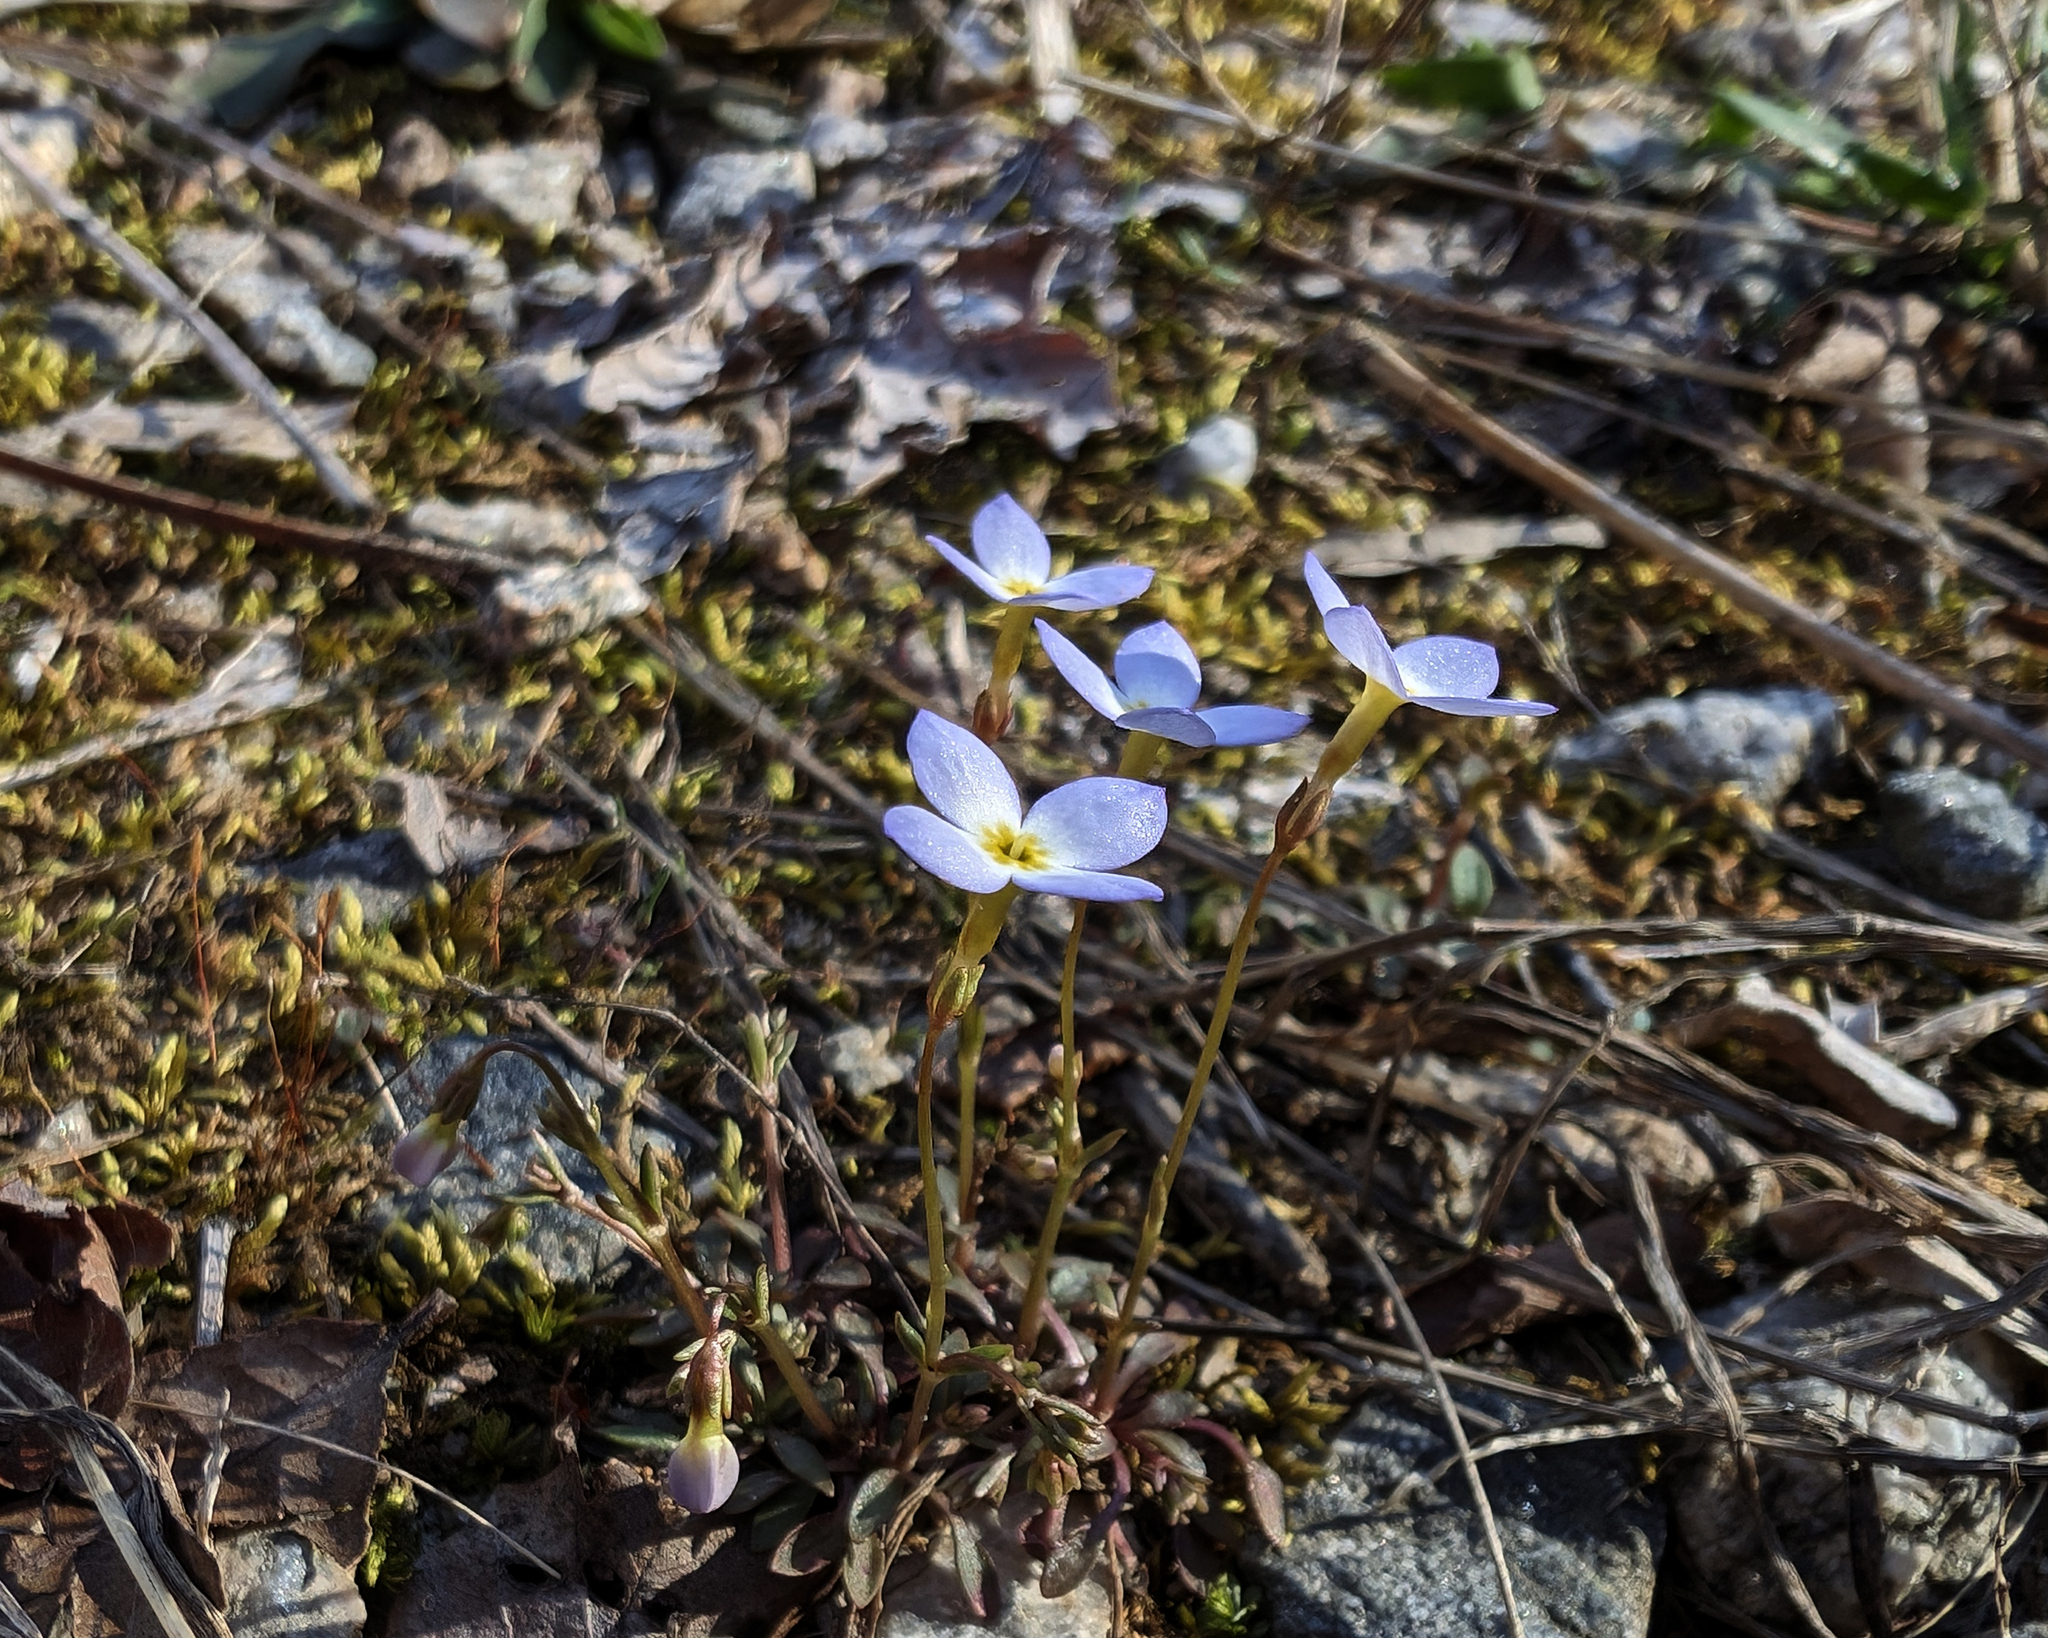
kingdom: Plantae
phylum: Tracheophyta
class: Magnoliopsida
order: Gentianales
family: Rubiaceae
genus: Houstonia
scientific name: Houstonia caerulea
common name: Bluets
